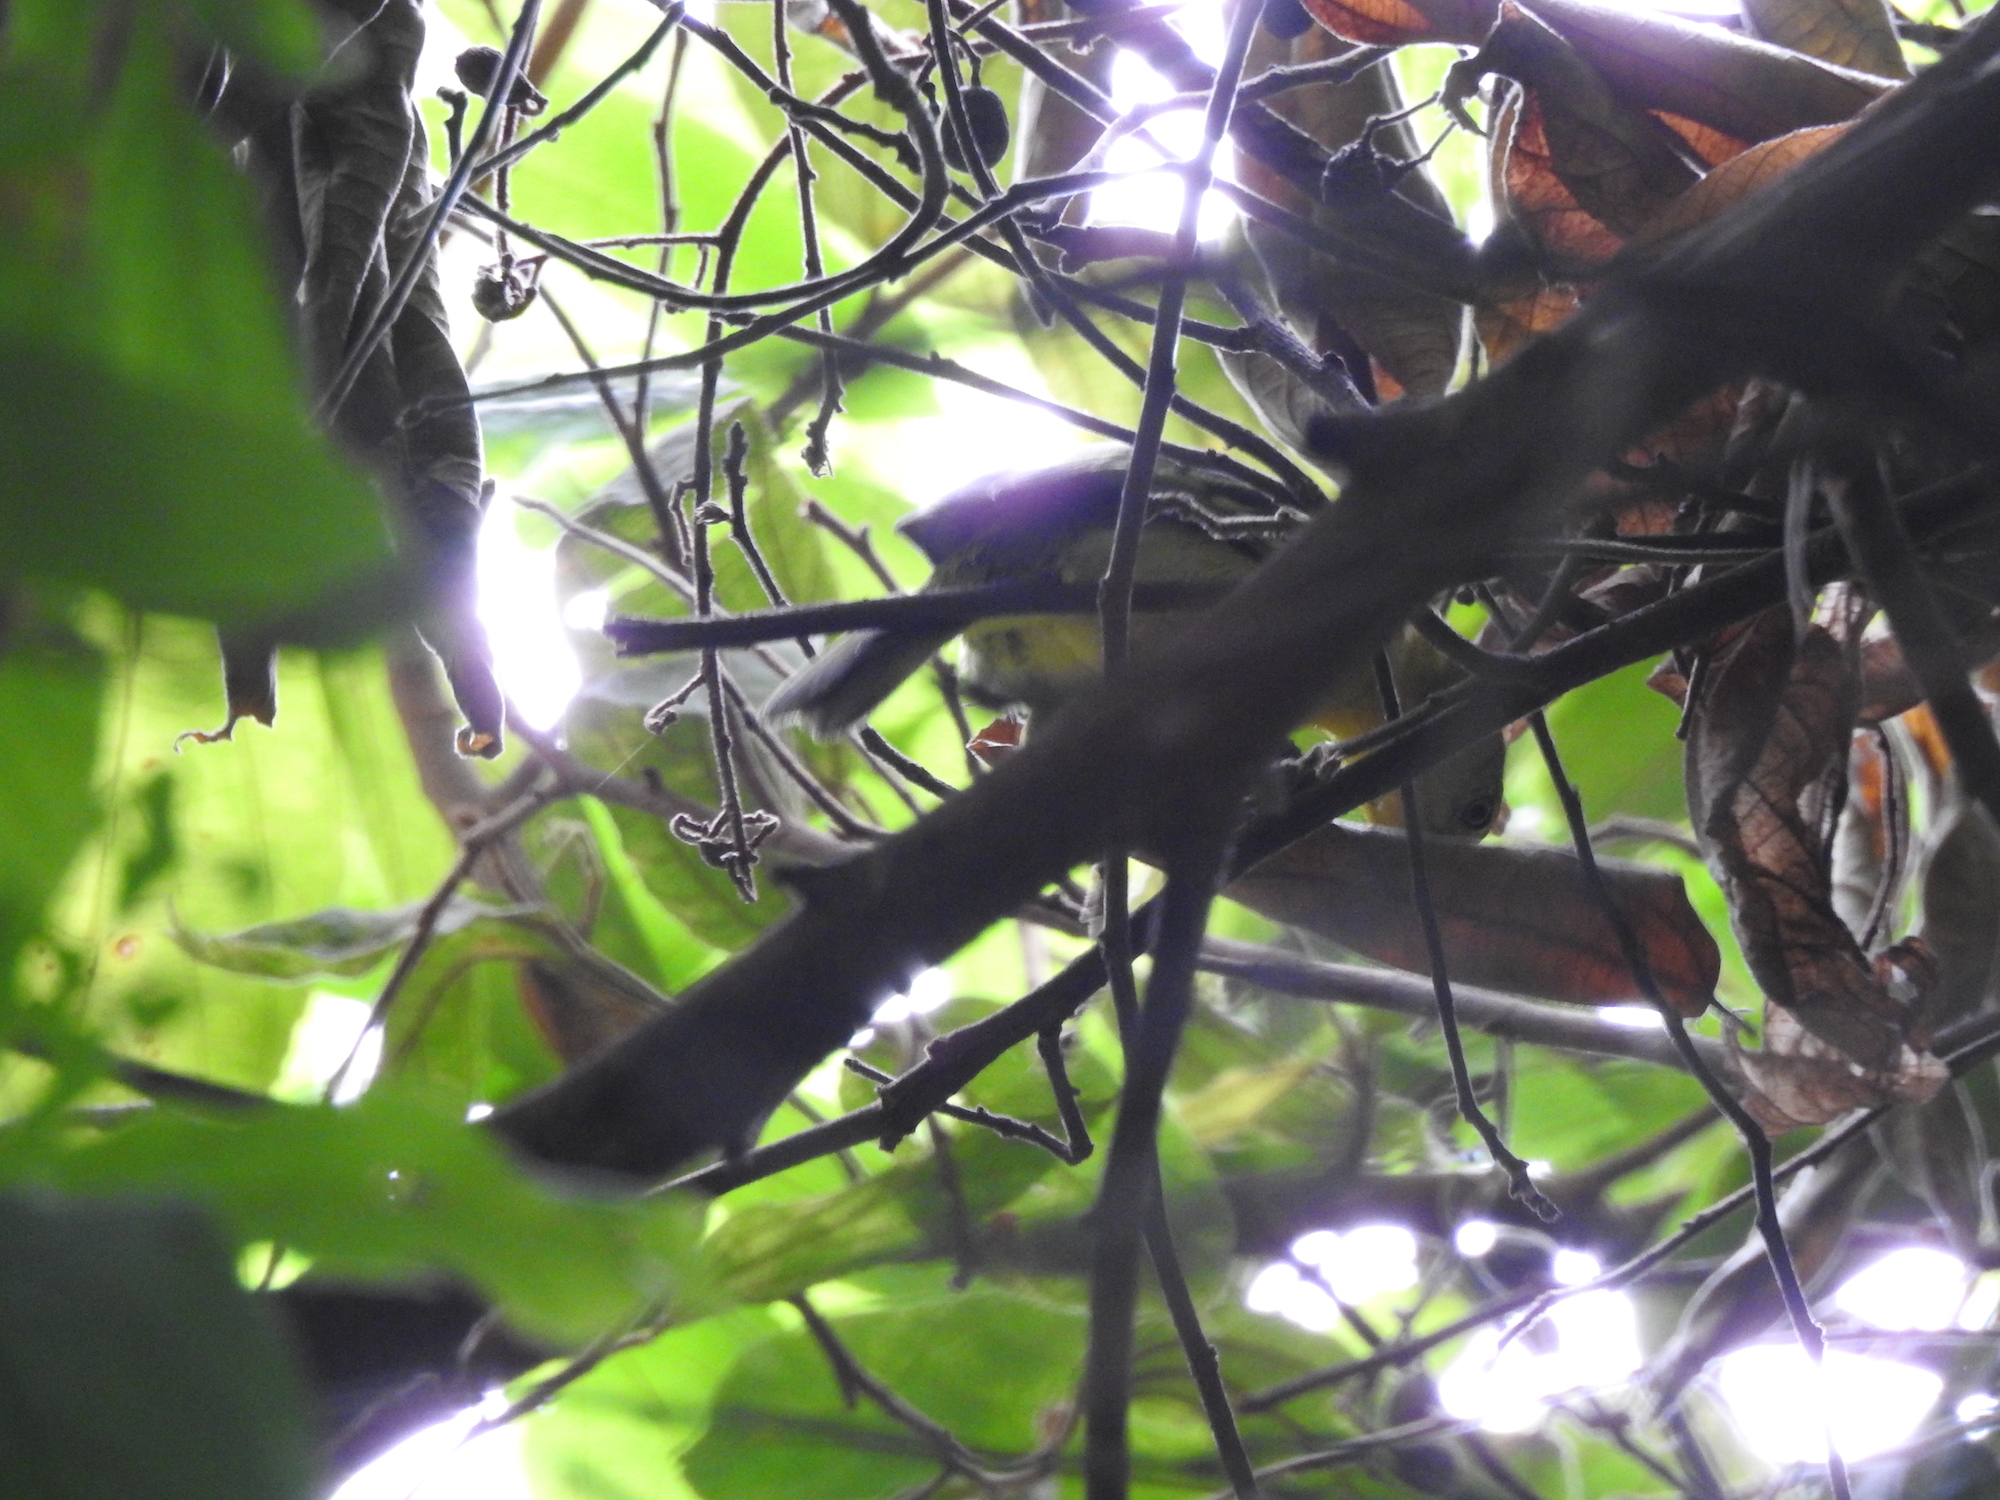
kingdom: Animalia
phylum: Chordata
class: Aves
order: Passeriformes
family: Aegithinidae
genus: Aegithina
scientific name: Aegithina tiphia
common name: Common iora
